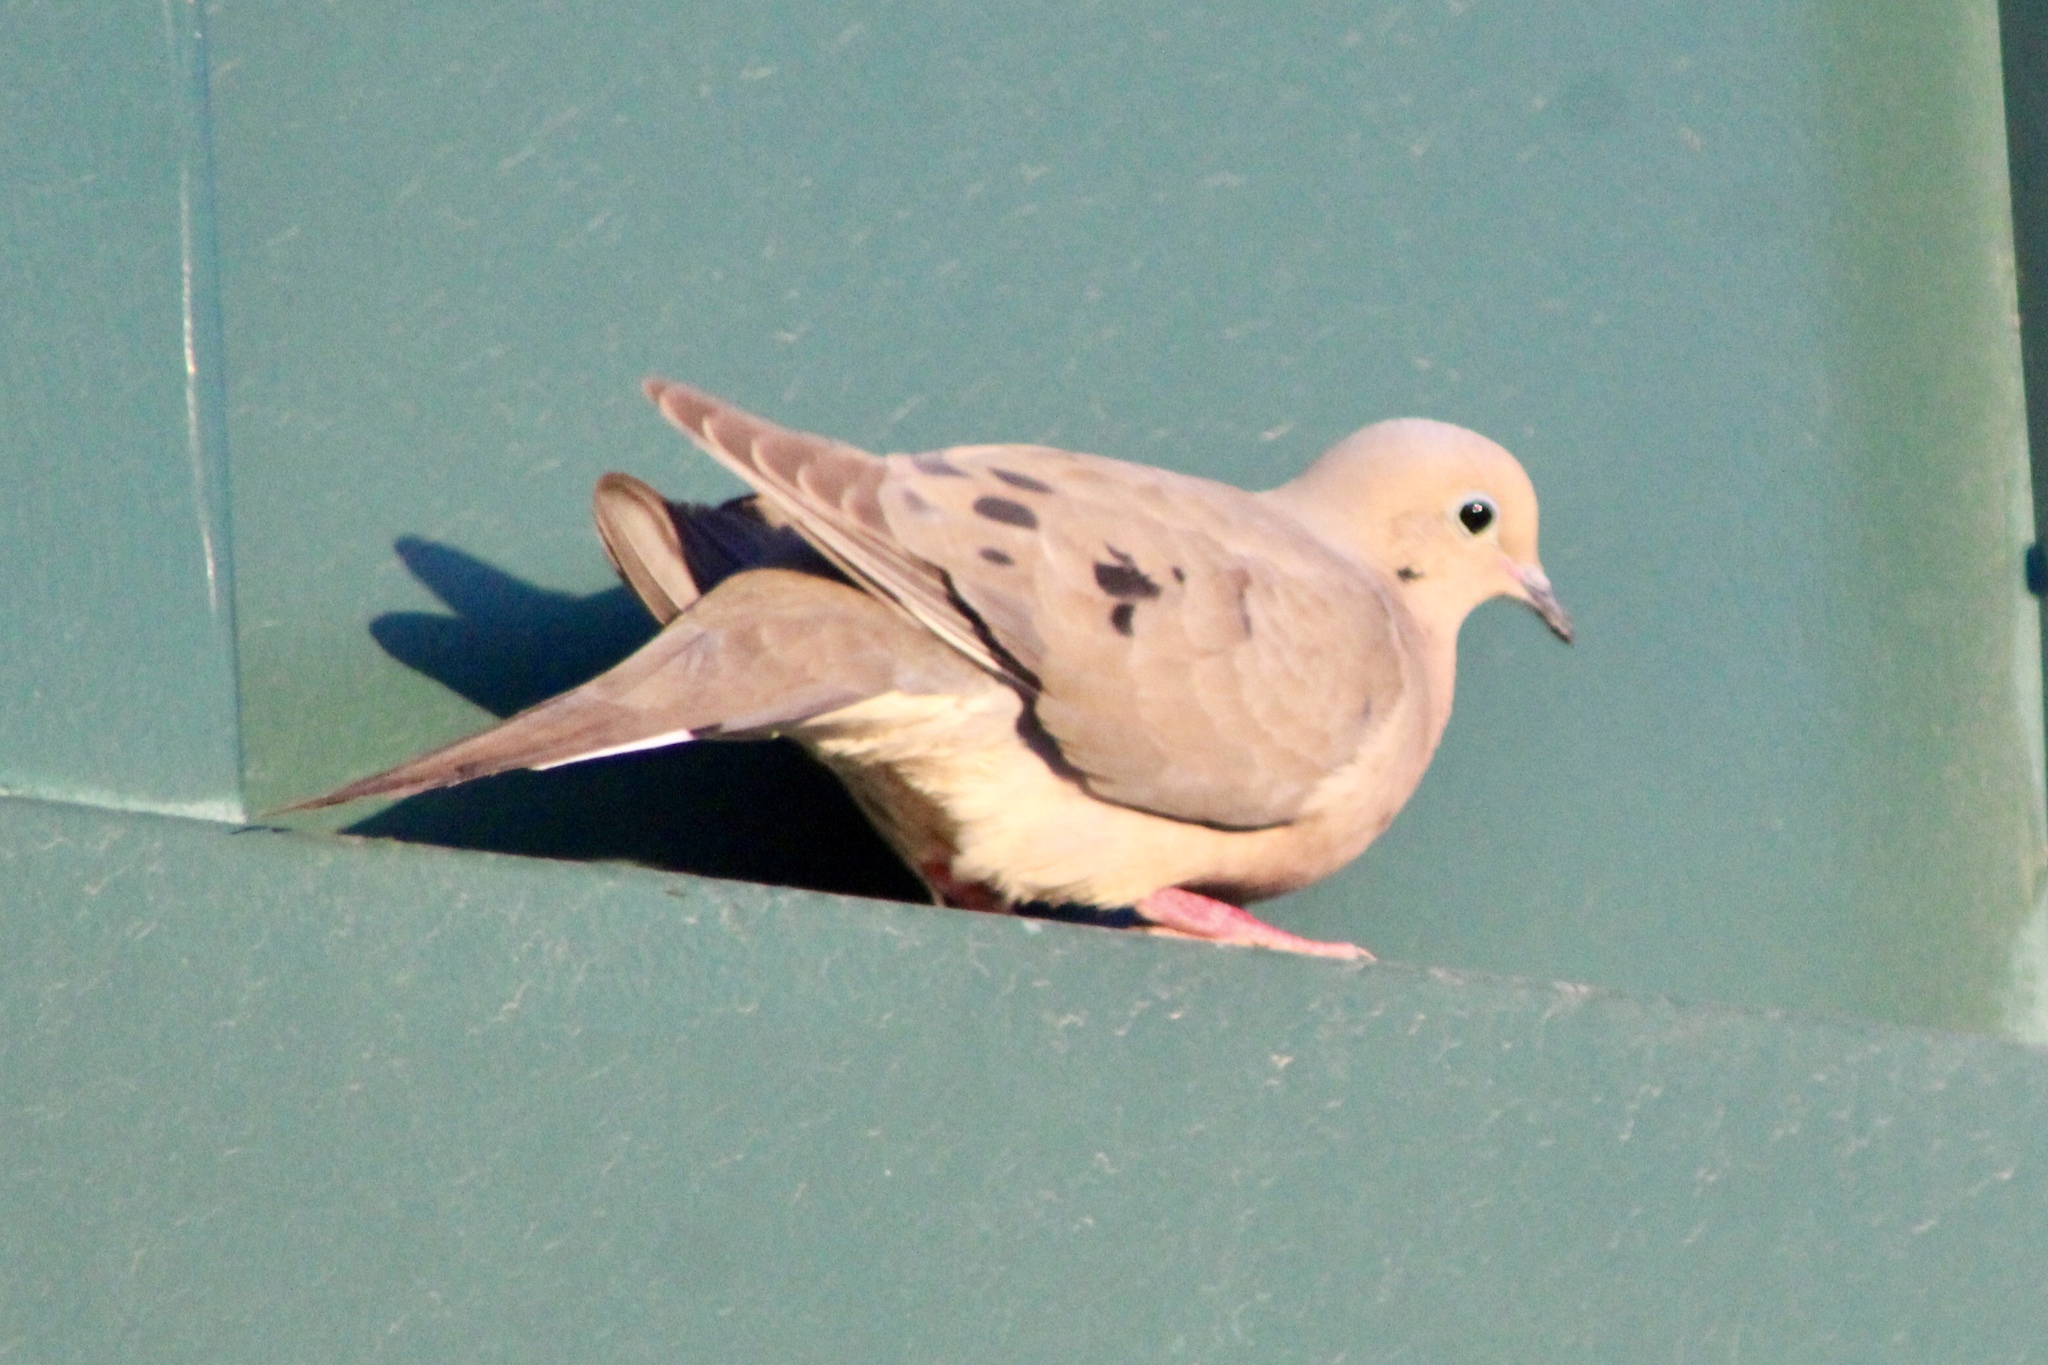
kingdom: Animalia
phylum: Chordata
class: Aves
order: Columbiformes
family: Columbidae
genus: Zenaida
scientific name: Zenaida macroura
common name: Mourning dove
